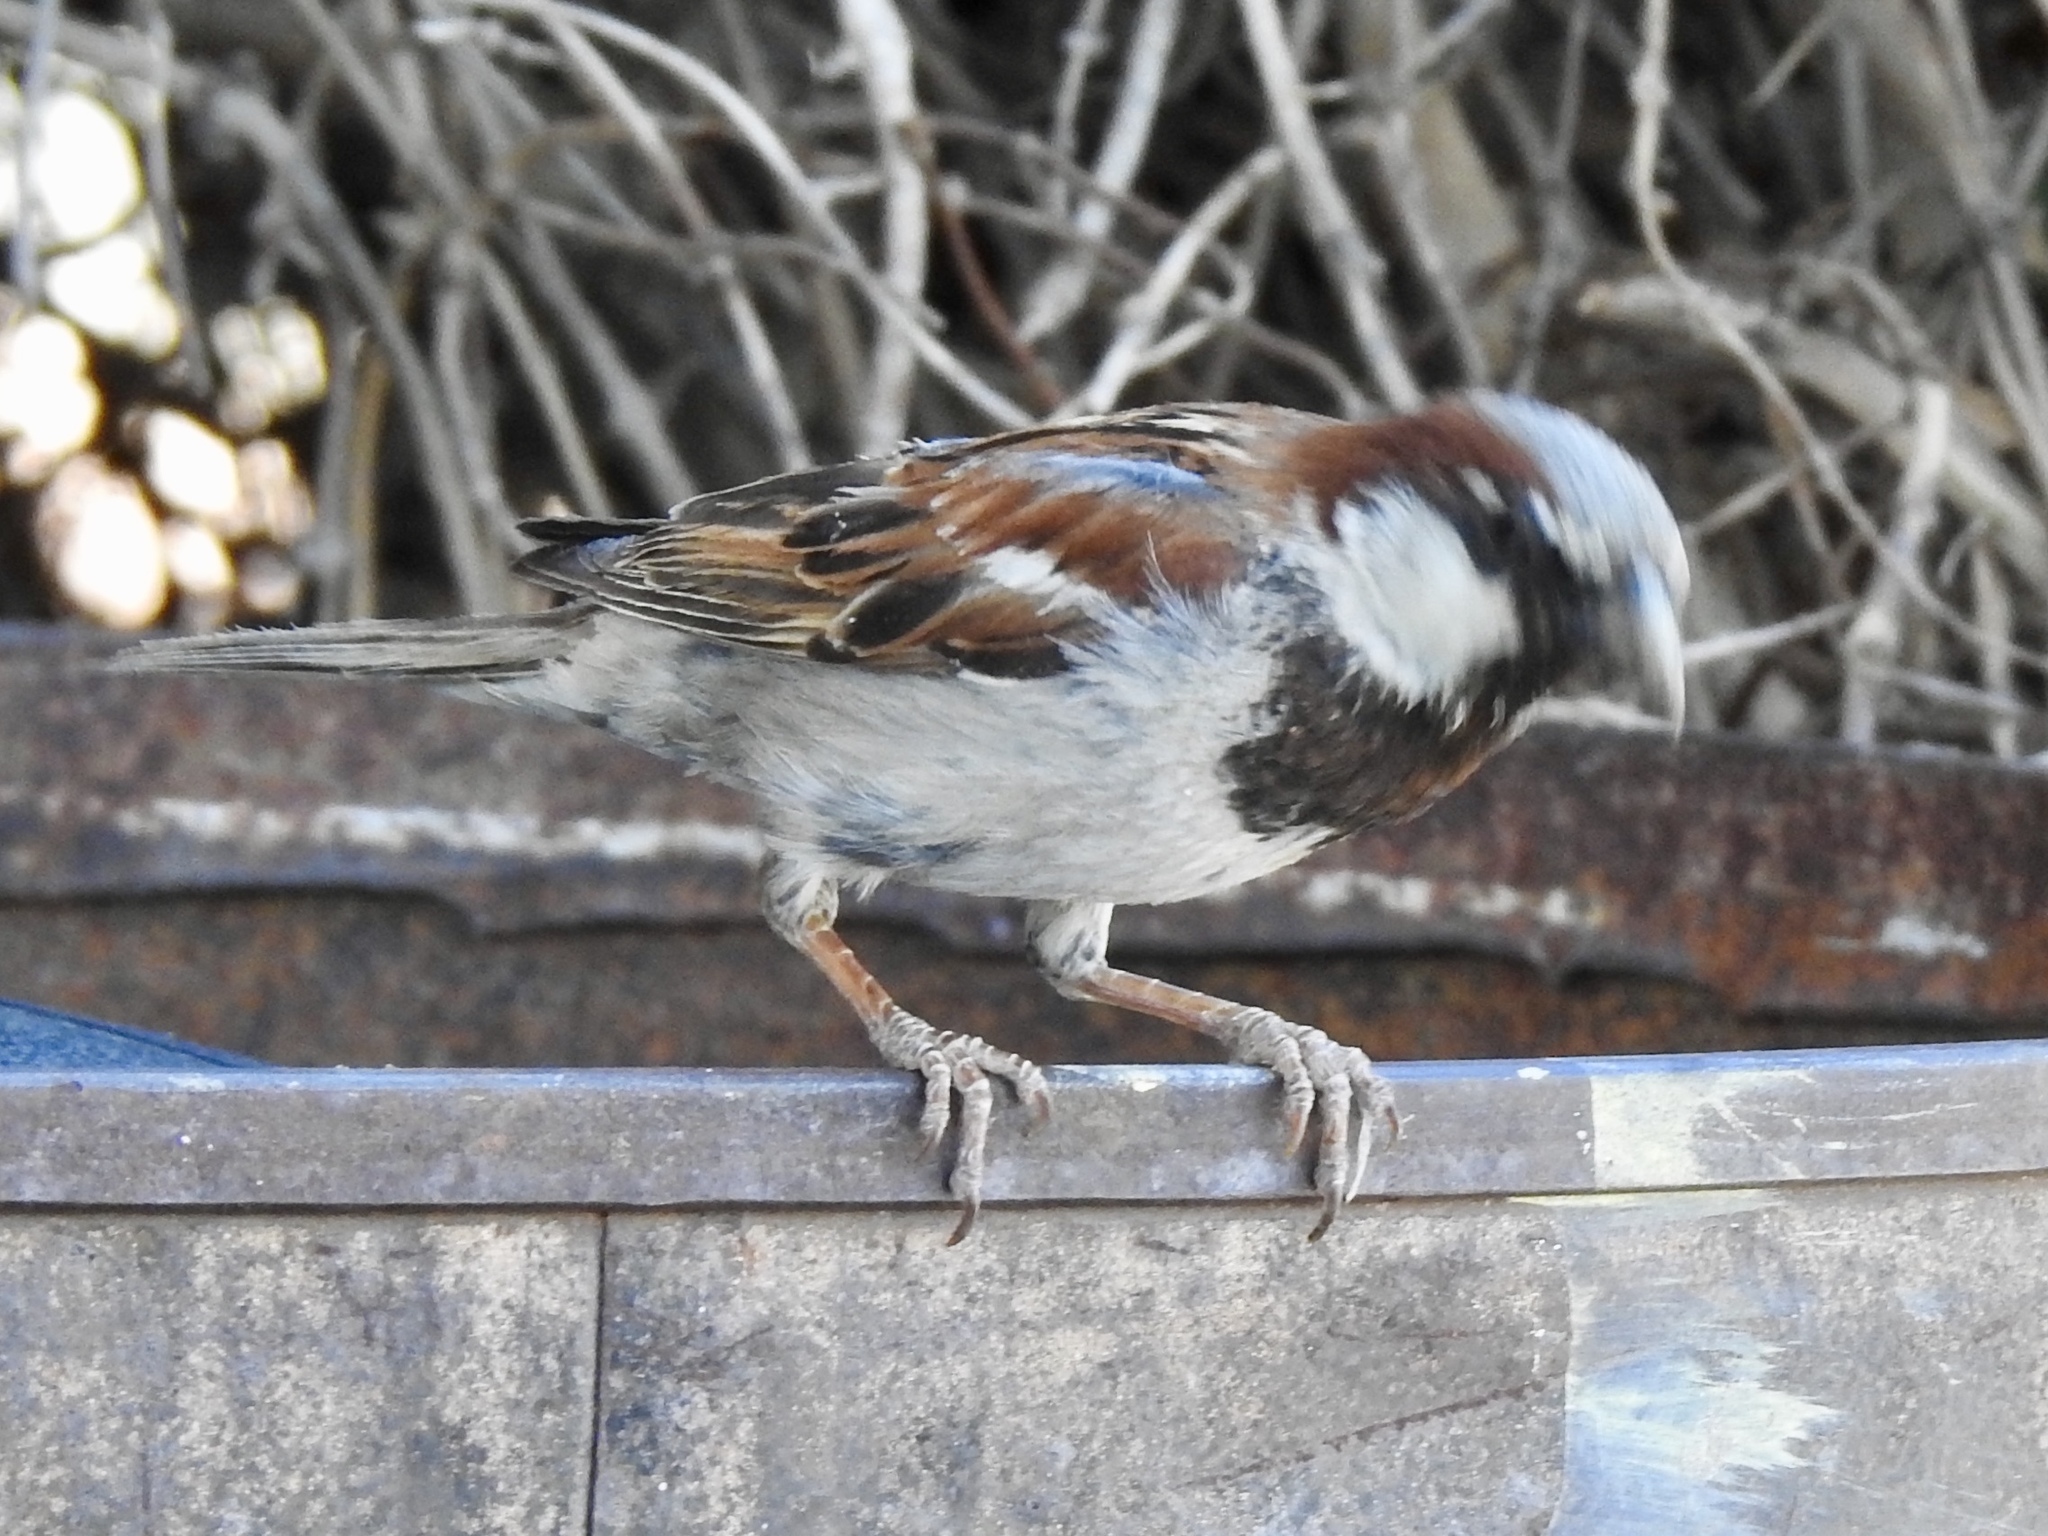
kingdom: Animalia
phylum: Chordata
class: Aves
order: Passeriformes
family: Passeridae
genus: Passer
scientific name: Passer domesticus
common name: House sparrow
